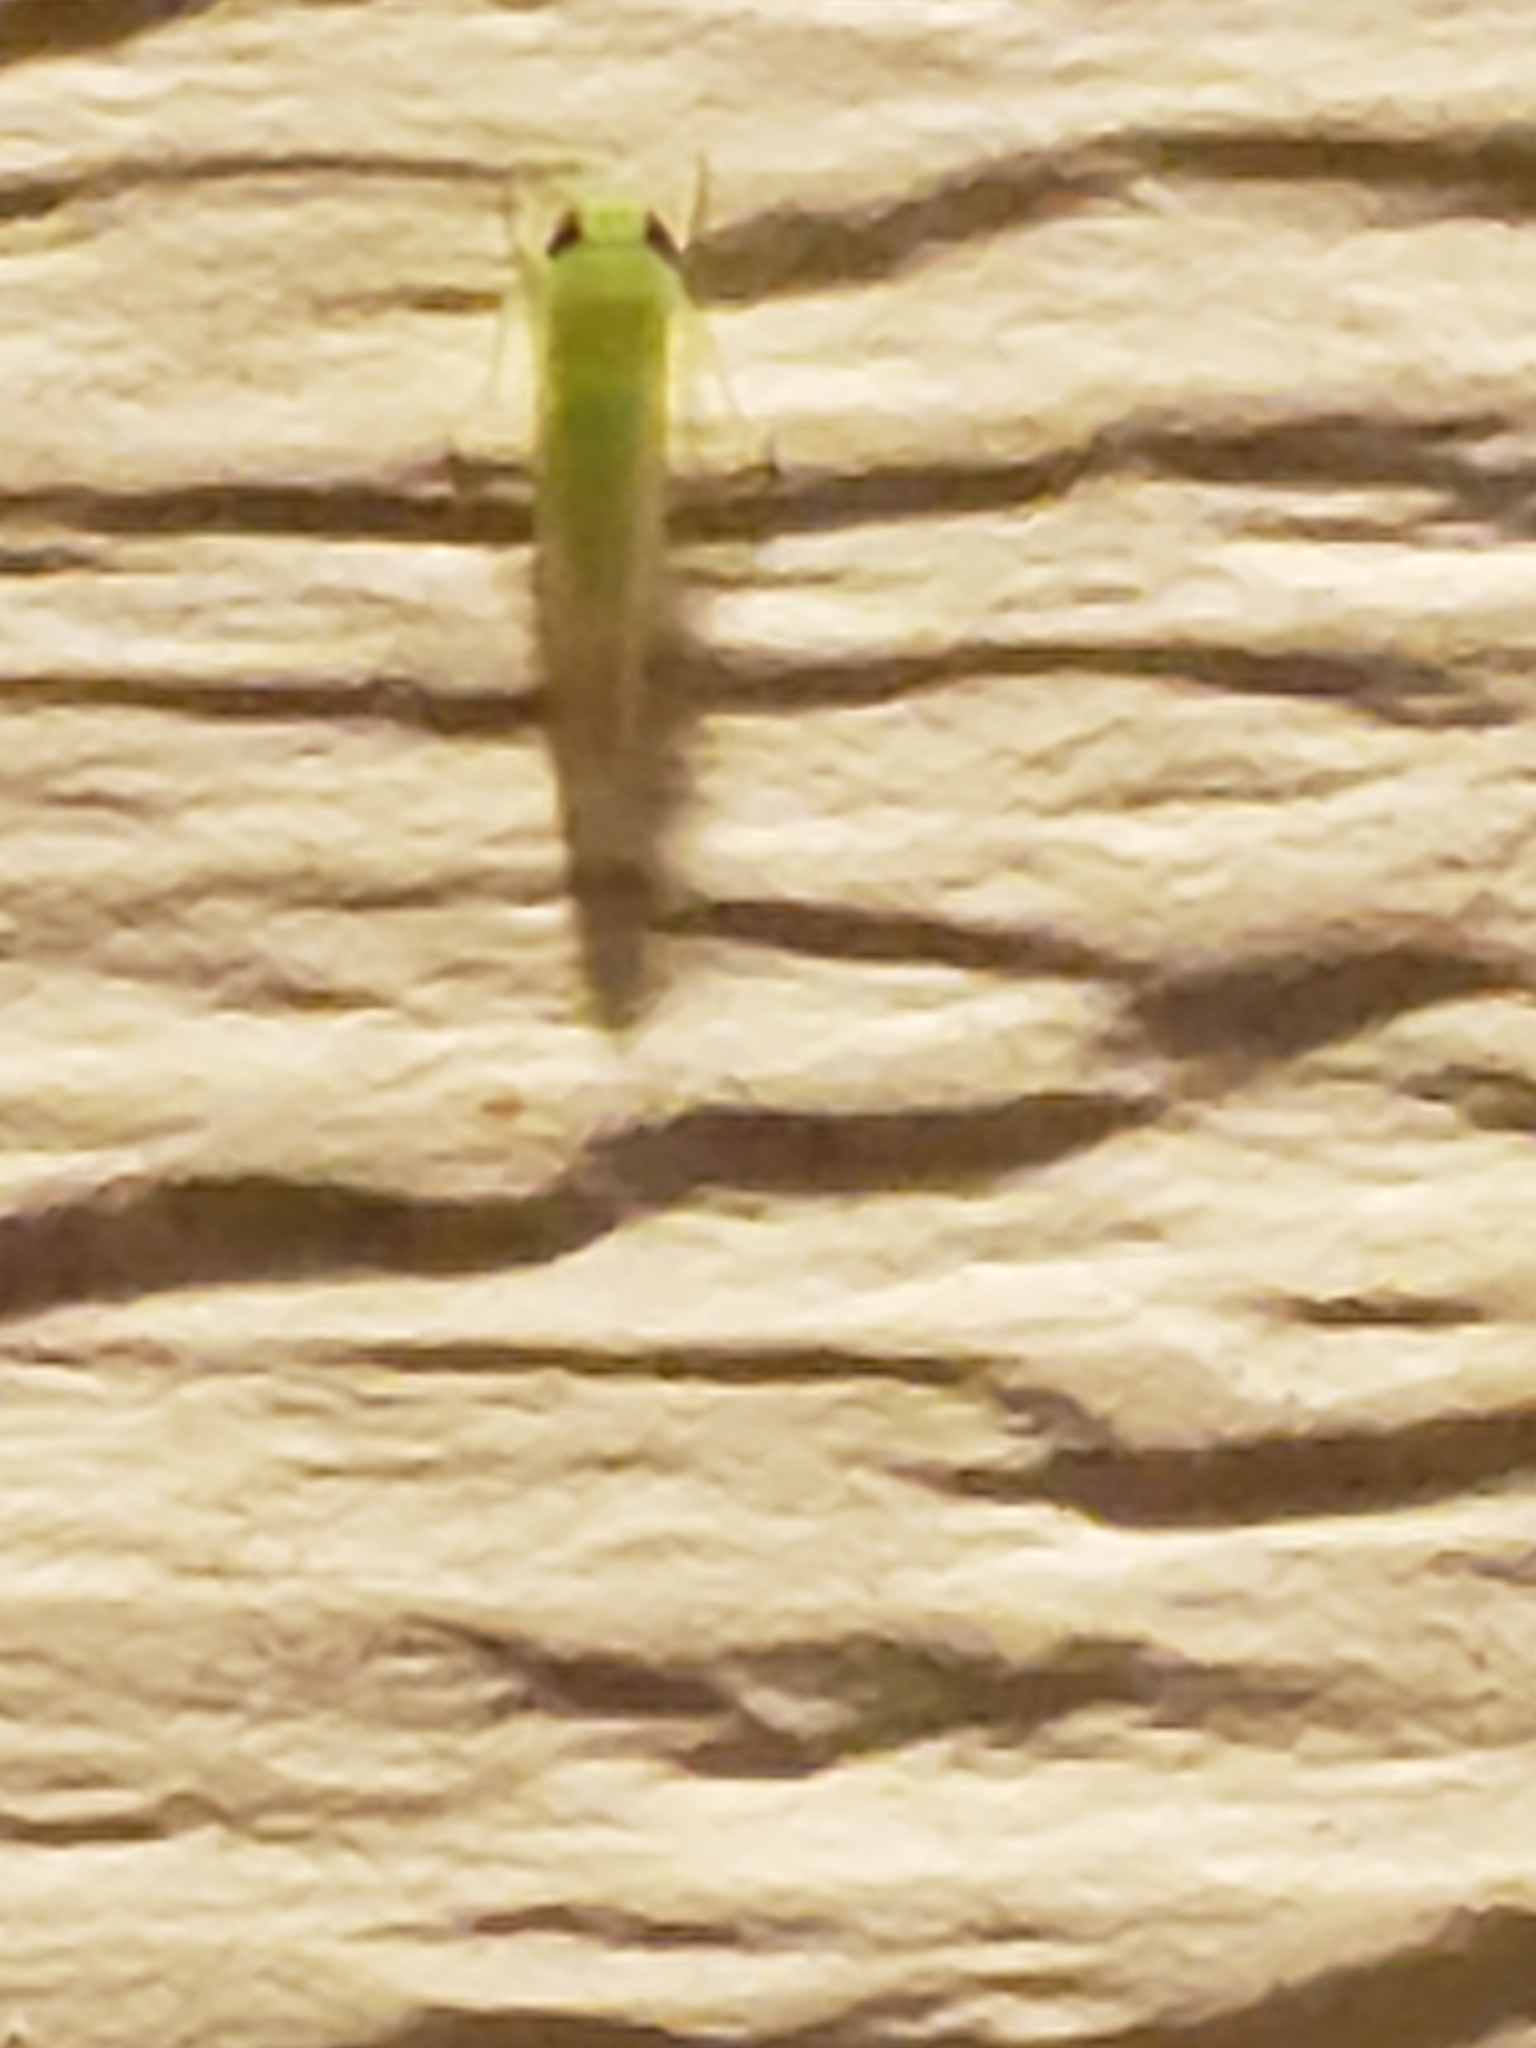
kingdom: Animalia
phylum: Arthropoda
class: Insecta
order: Hemiptera
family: Cicadellidae
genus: Empoasca
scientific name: Empoasca fabae
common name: Potato leafhopper
